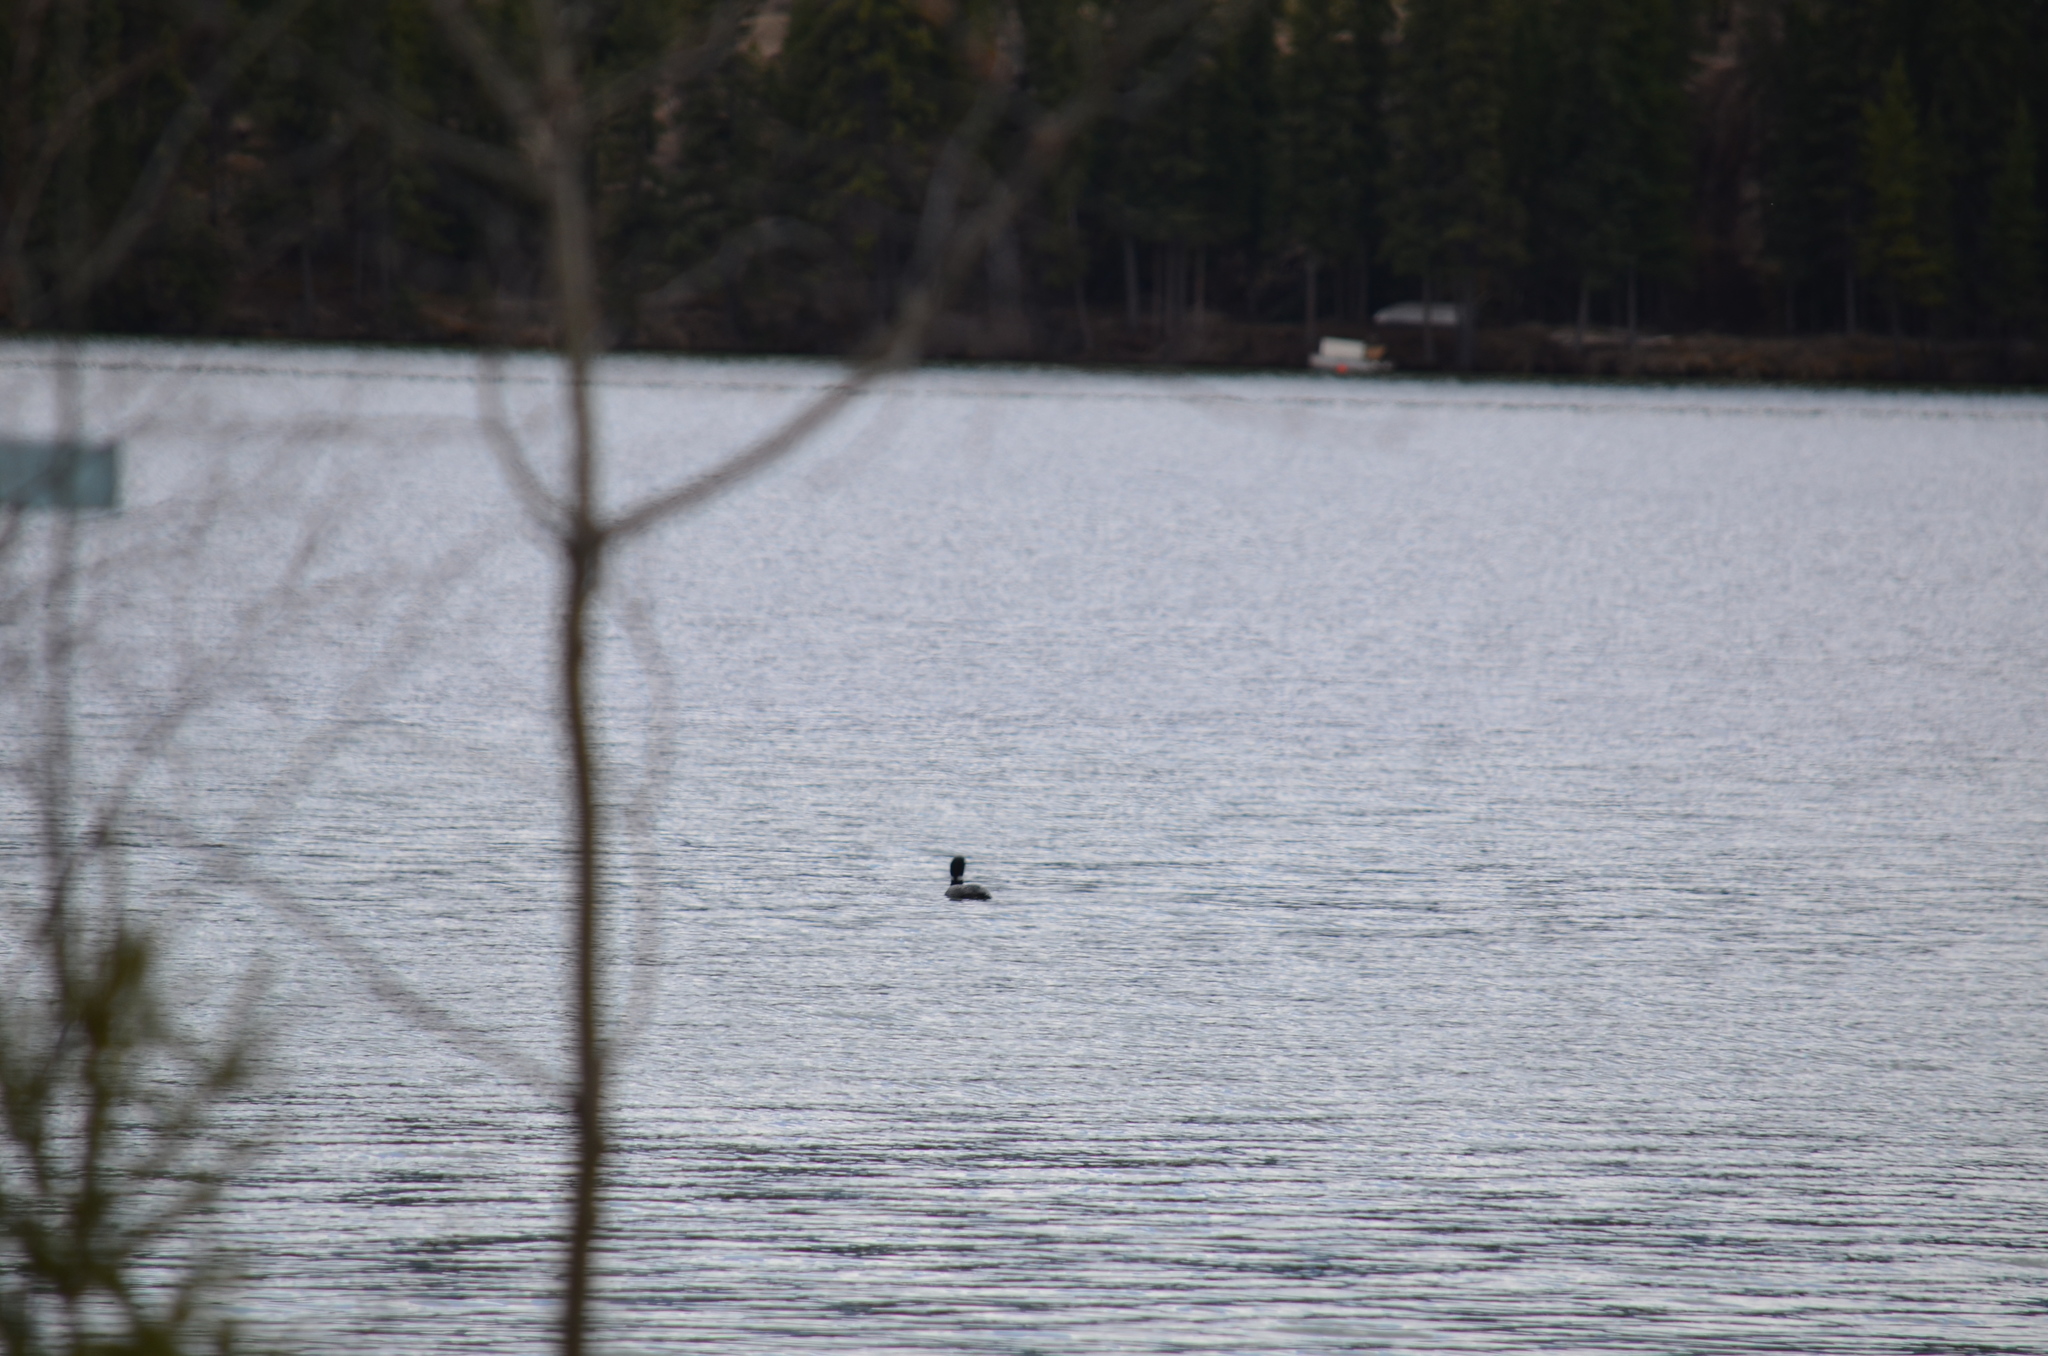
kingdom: Animalia
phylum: Chordata
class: Aves
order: Gaviiformes
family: Gaviidae
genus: Gavia
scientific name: Gavia immer
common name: Common loon
